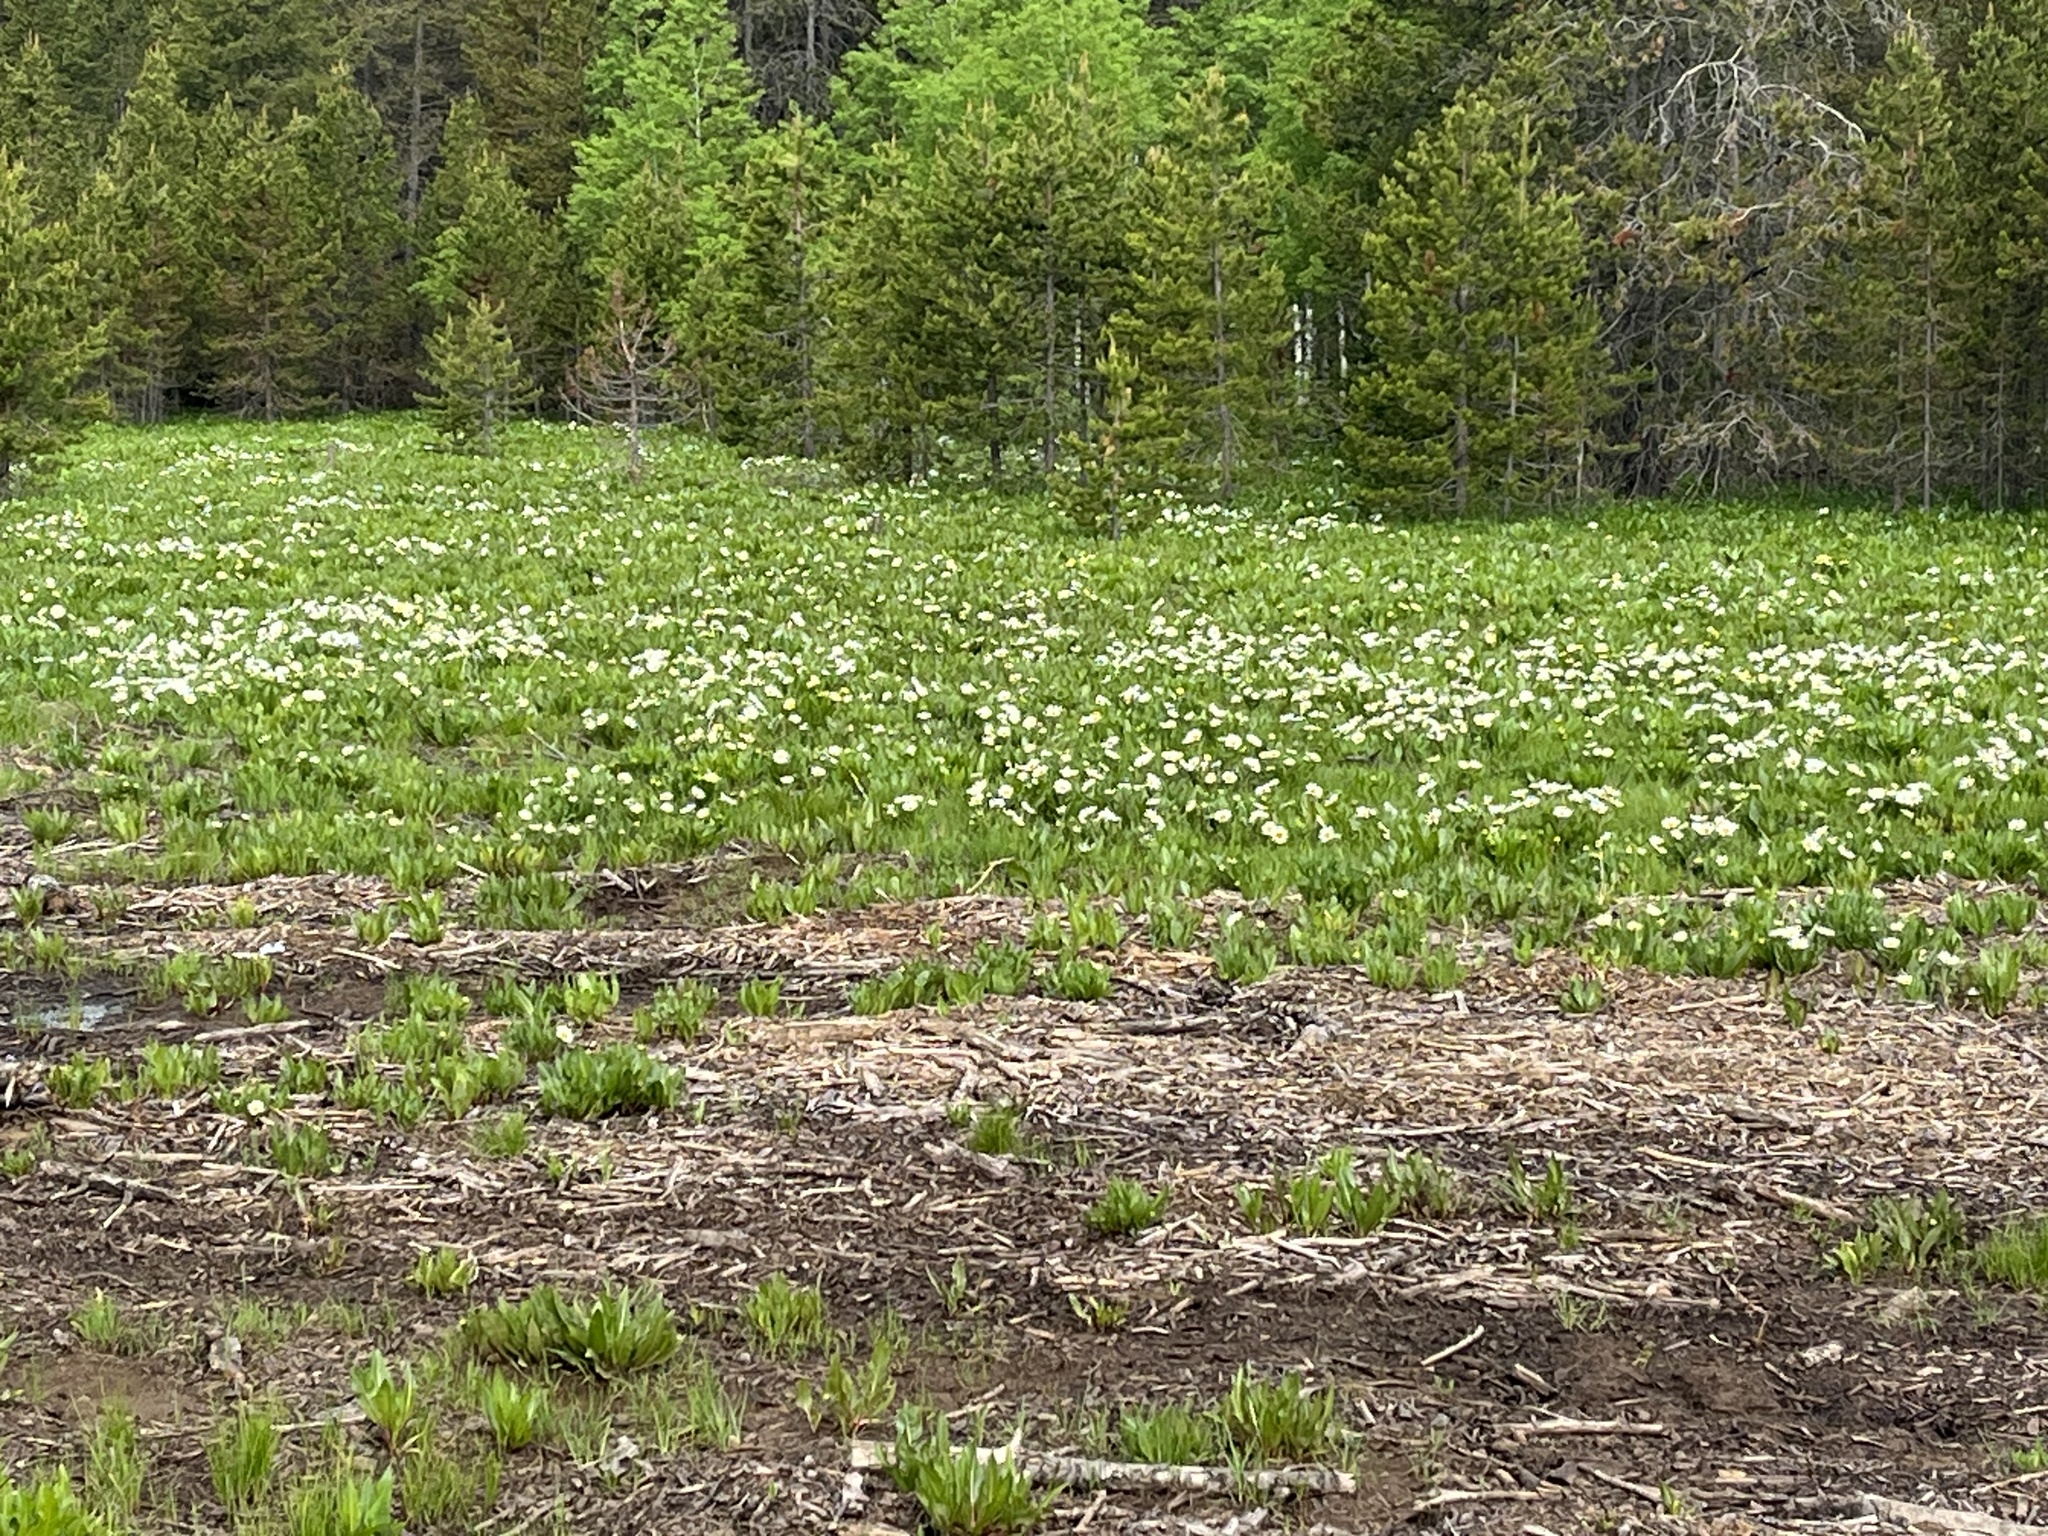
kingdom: Plantae
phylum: Tracheophyta
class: Magnoliopsida
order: Asterales
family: Asteraceae
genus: Wyethia
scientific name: Wyethia helianthoides
